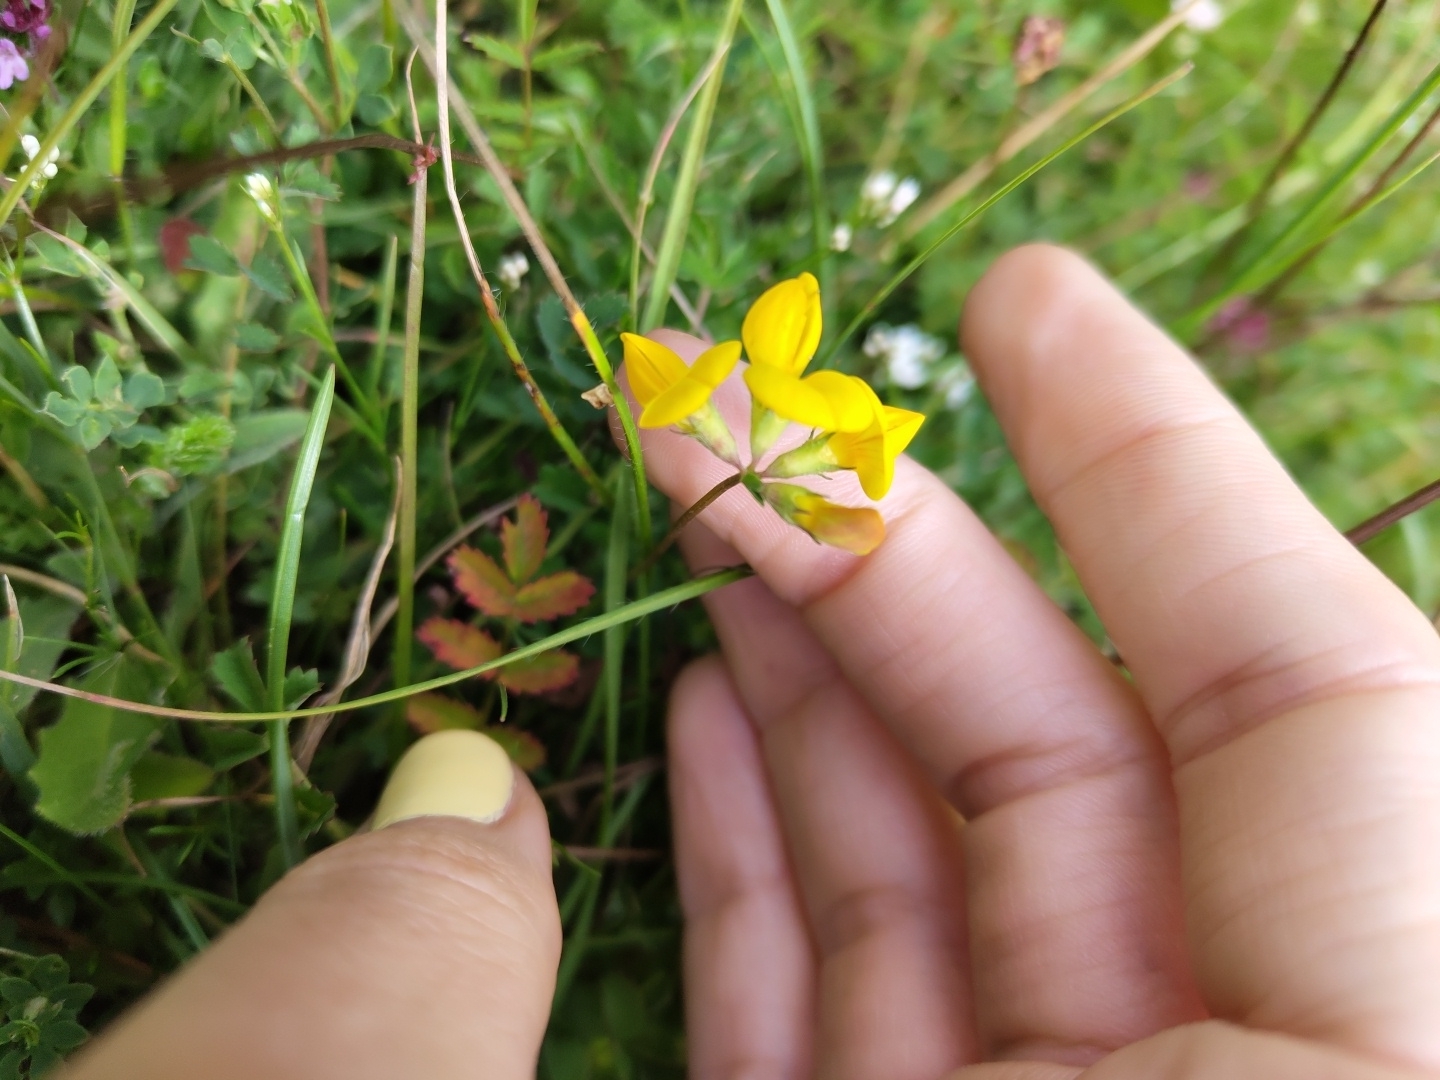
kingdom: Plantae
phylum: Tracheophyta
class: Magnoliopsida
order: Fabales
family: Fabaceae
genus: Lotus
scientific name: Lotus corniculatus
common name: Common bird's-foot-trefoil
